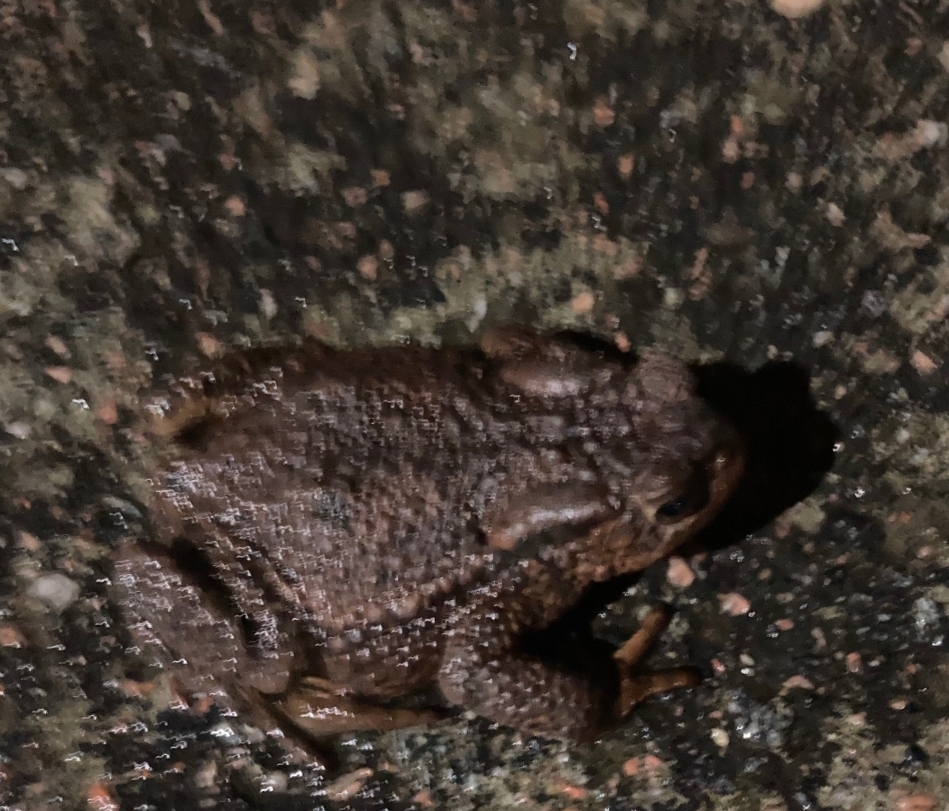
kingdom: Animalia
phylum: Chordata
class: Amphibia
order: Anura
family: Bufonidae
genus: Bufo
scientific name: Bufo bufo
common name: Common toad
